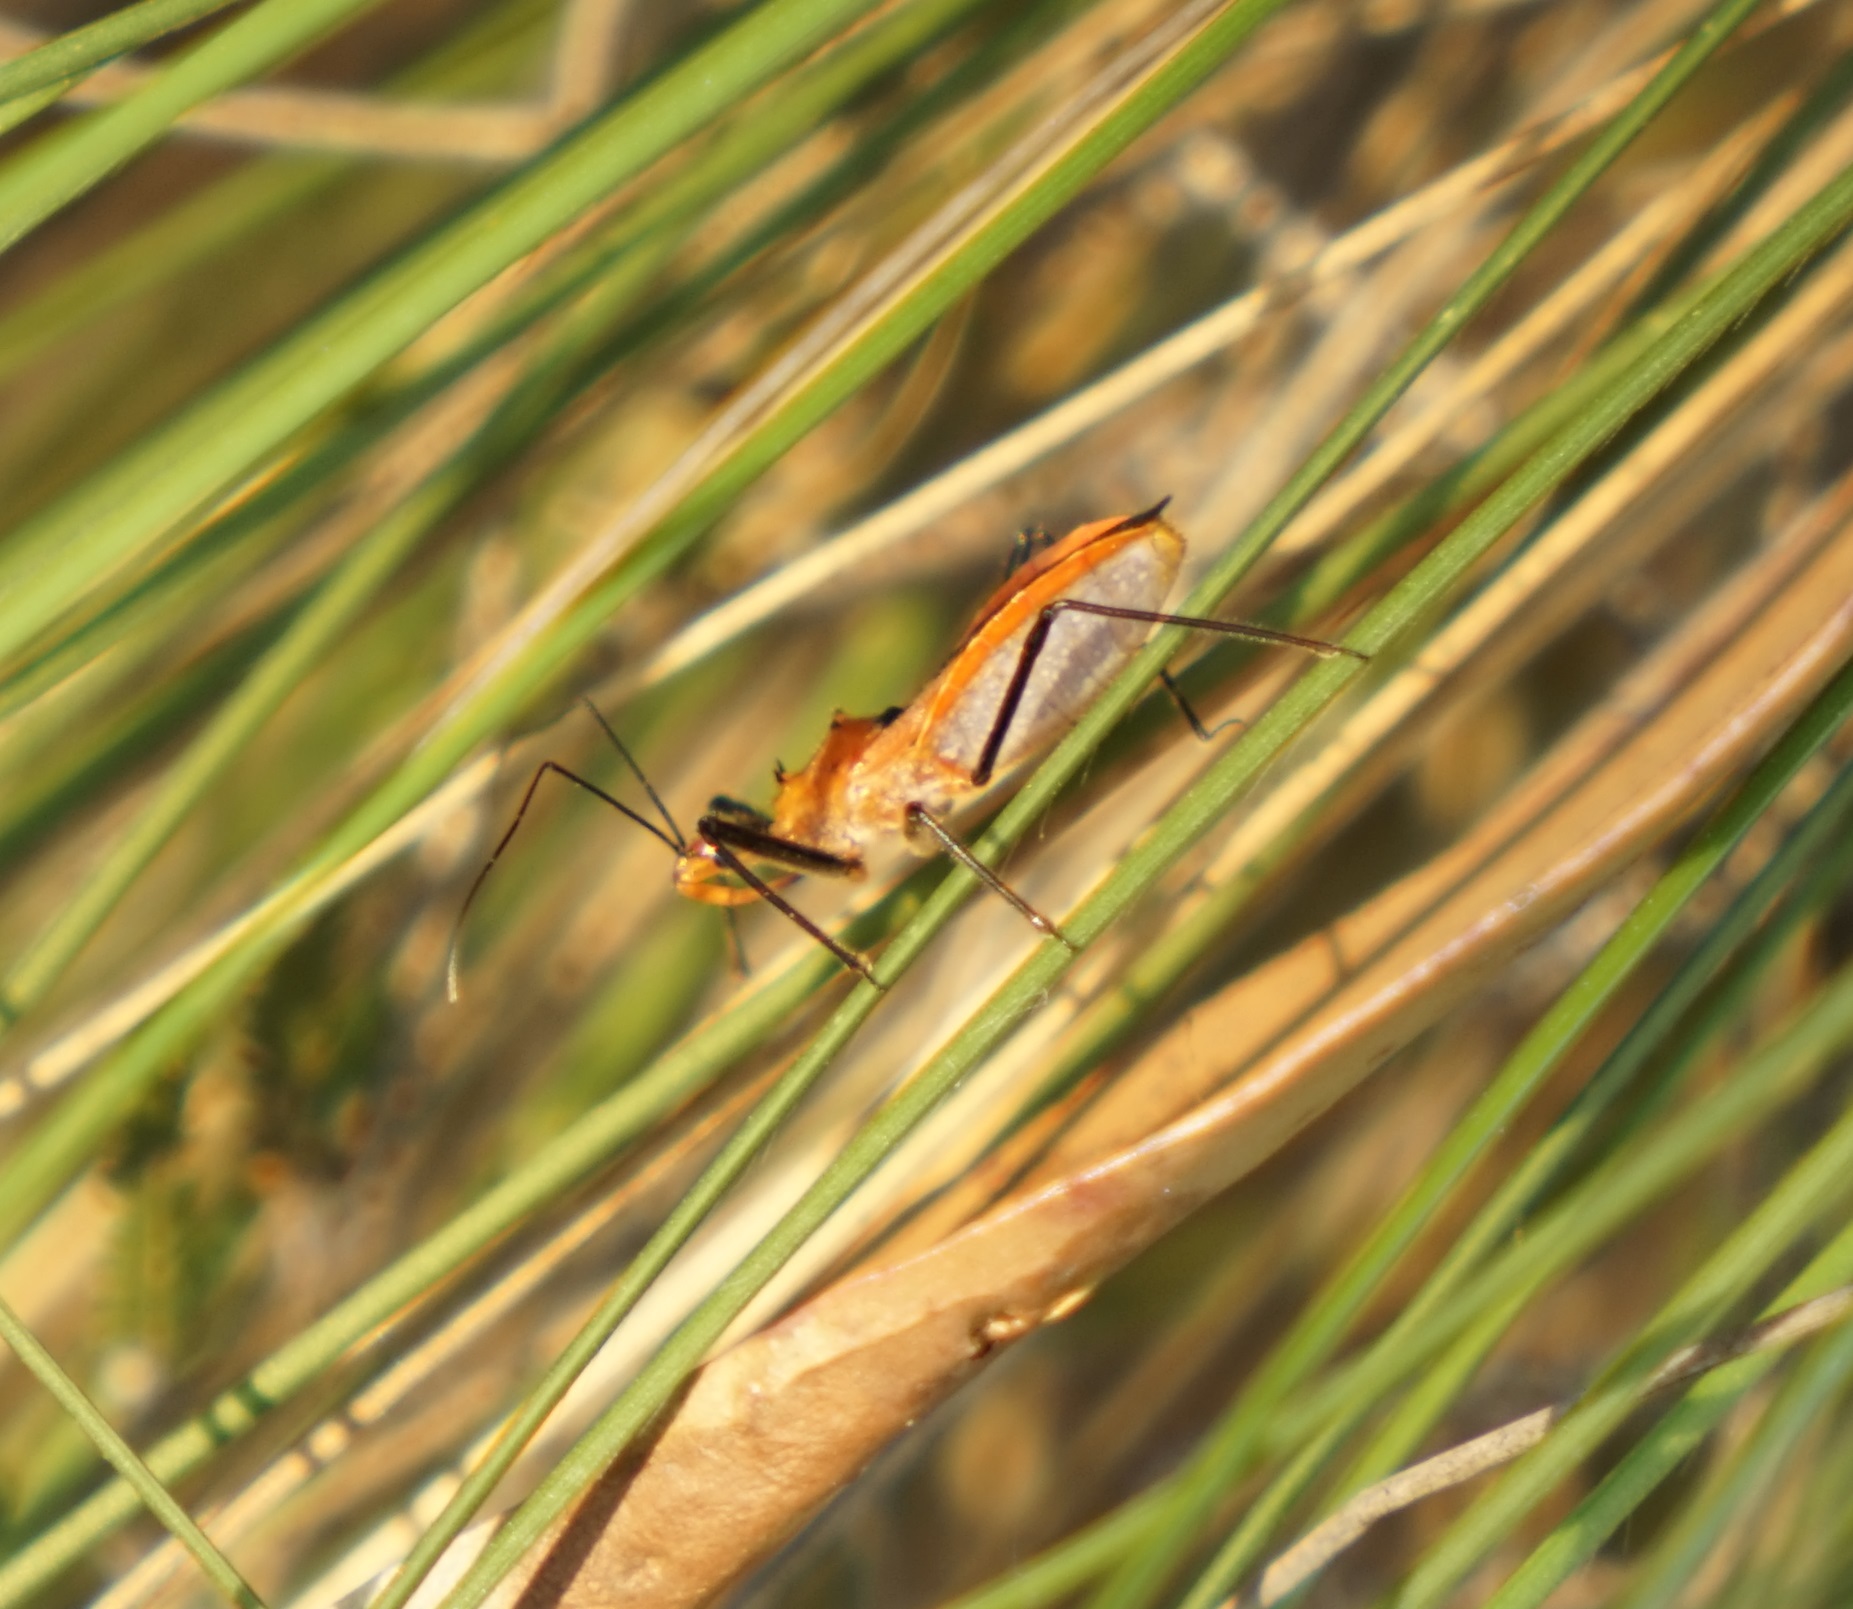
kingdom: Animalia
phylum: Arthropoda
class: Insecta
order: Hemiptera
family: Reduviidae
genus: Gminatus
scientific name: Gminatus australis
